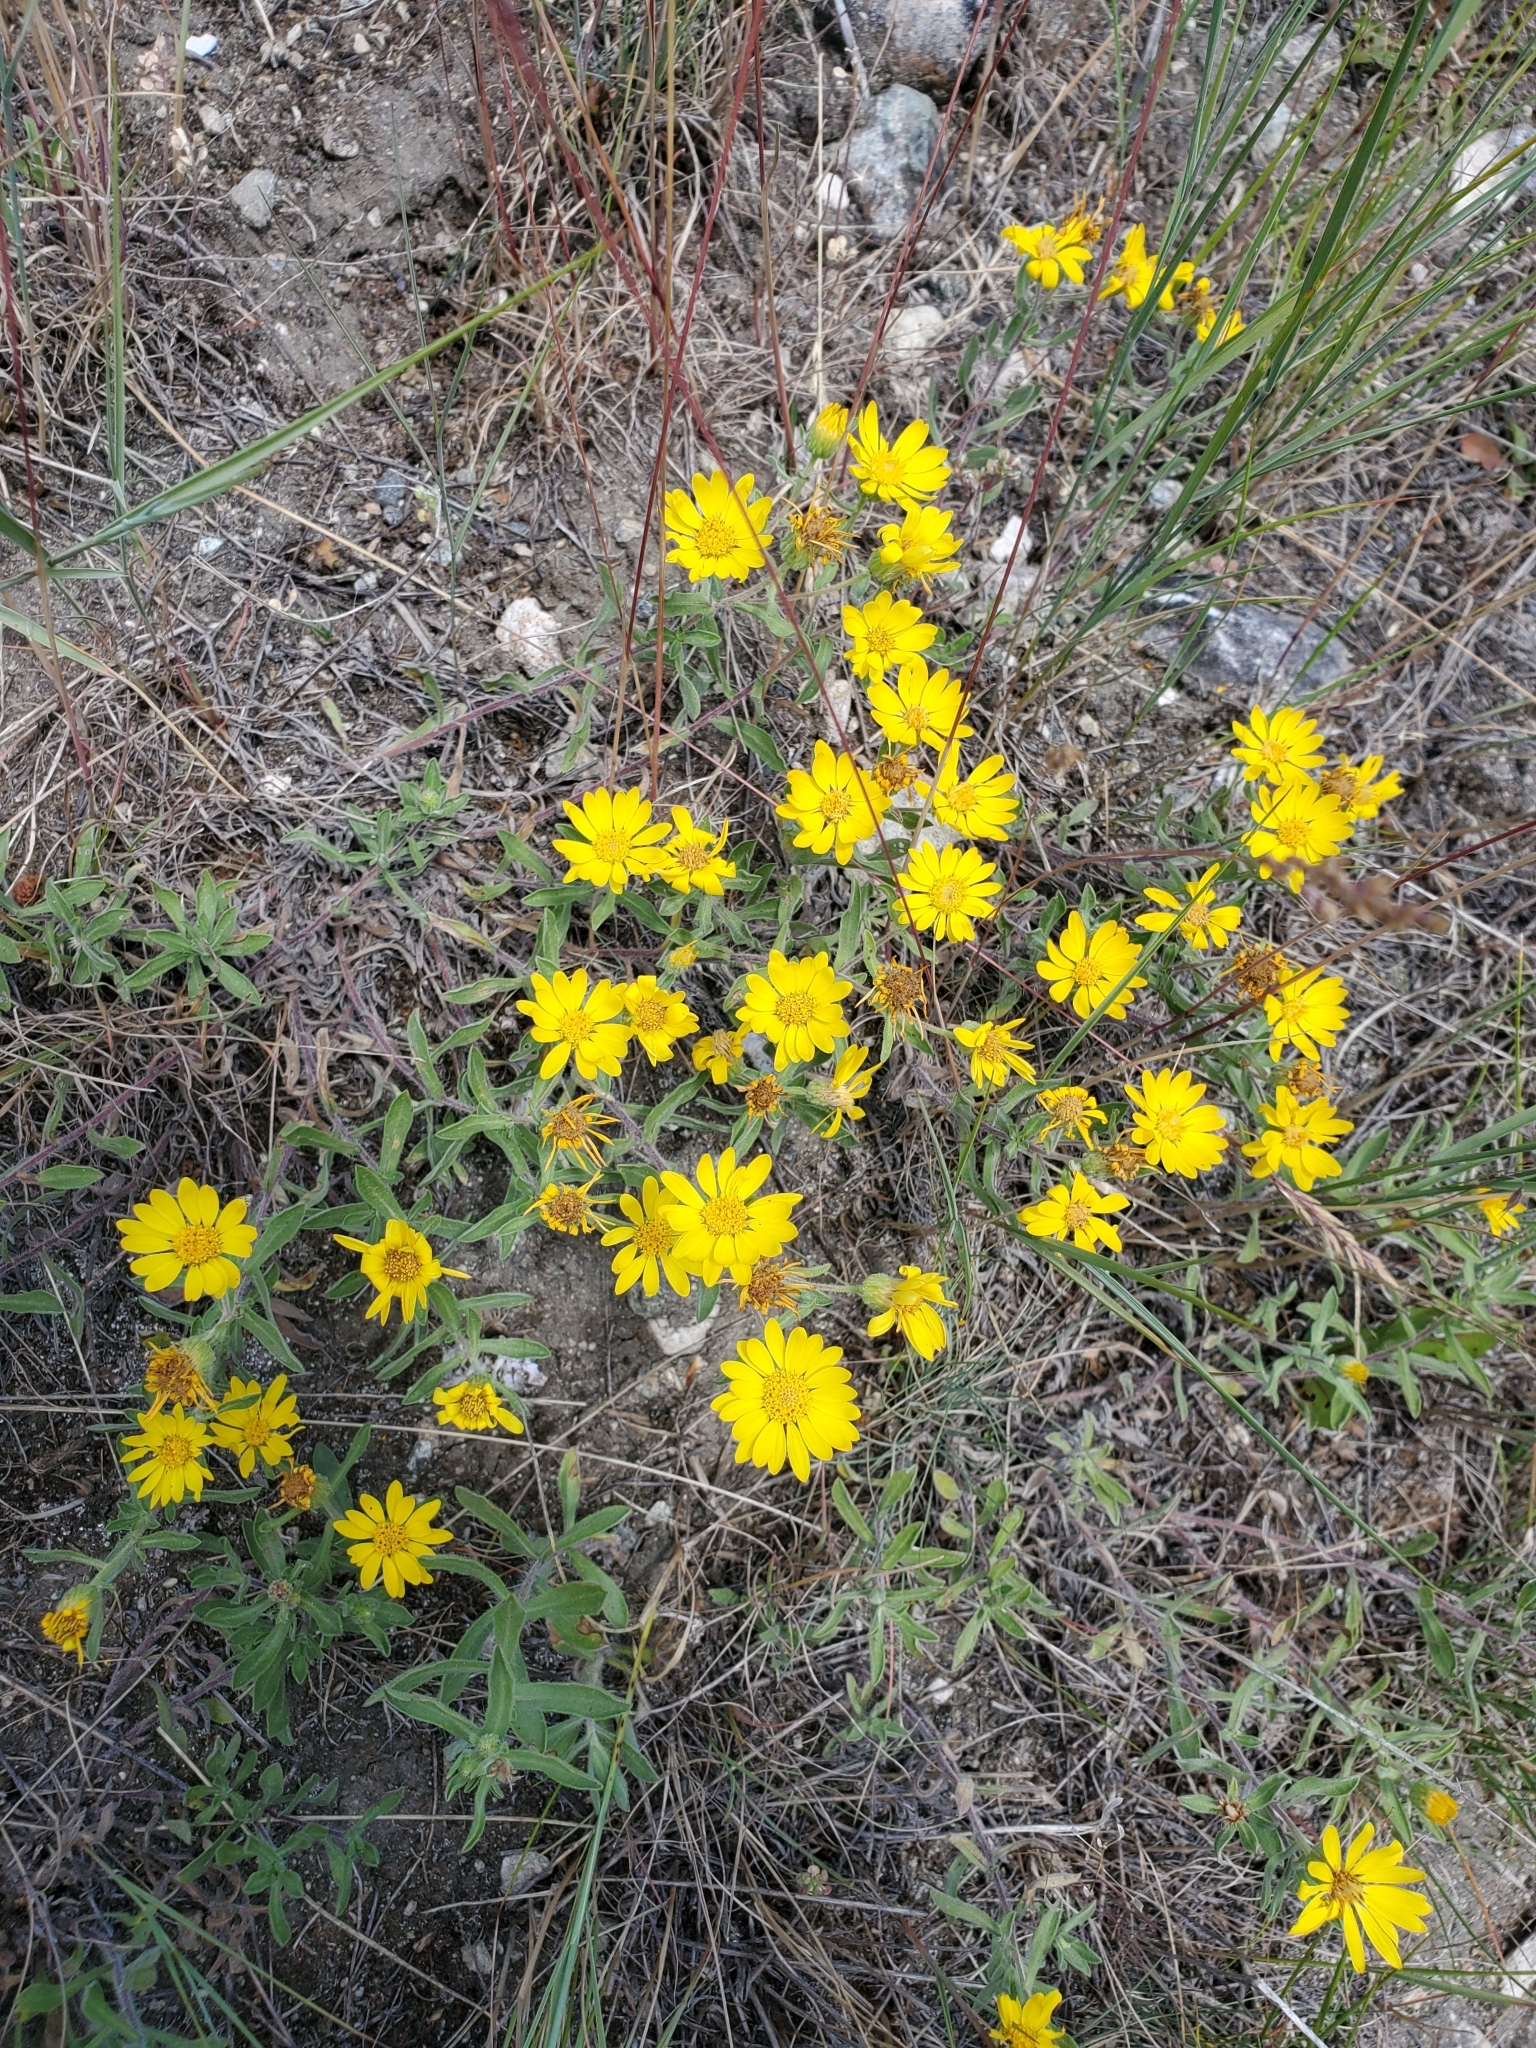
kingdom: Plantae
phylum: Tracheophyta
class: Magnoliopsida
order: Asterales
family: Asteraceae
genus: Heterotheca
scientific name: Heterotheca villosa
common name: Hairy false goldenaster
